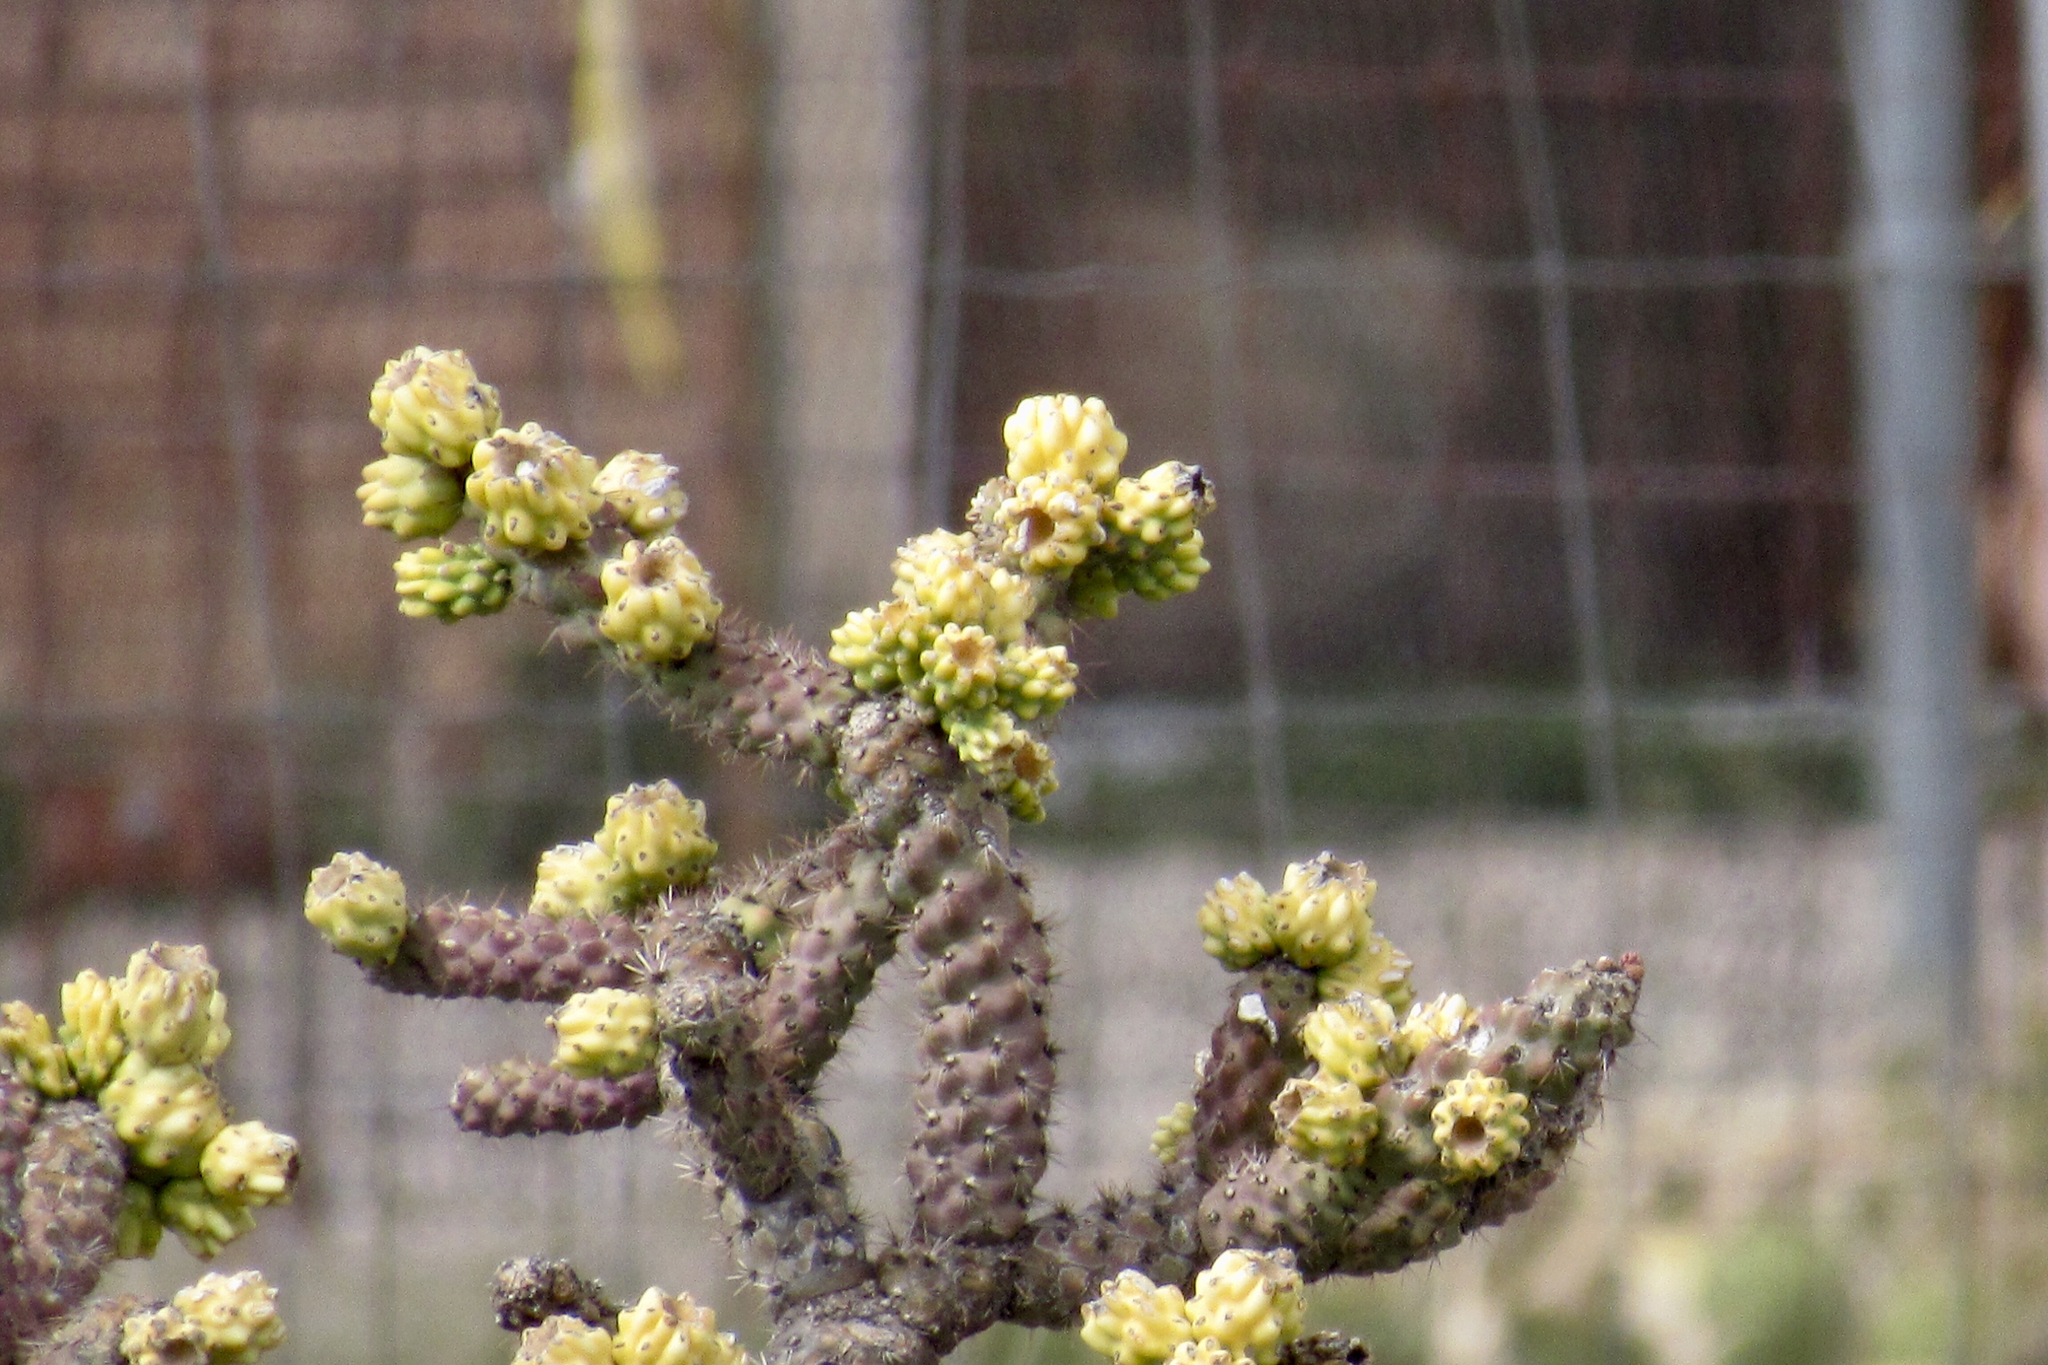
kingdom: Plantae
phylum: Tracheophyta
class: Magnoliopsida
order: Caryophyllales
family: Cactaceae
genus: Cylindropuntia
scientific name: Cylindropuntia imbricata
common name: Candelabrum cactus
